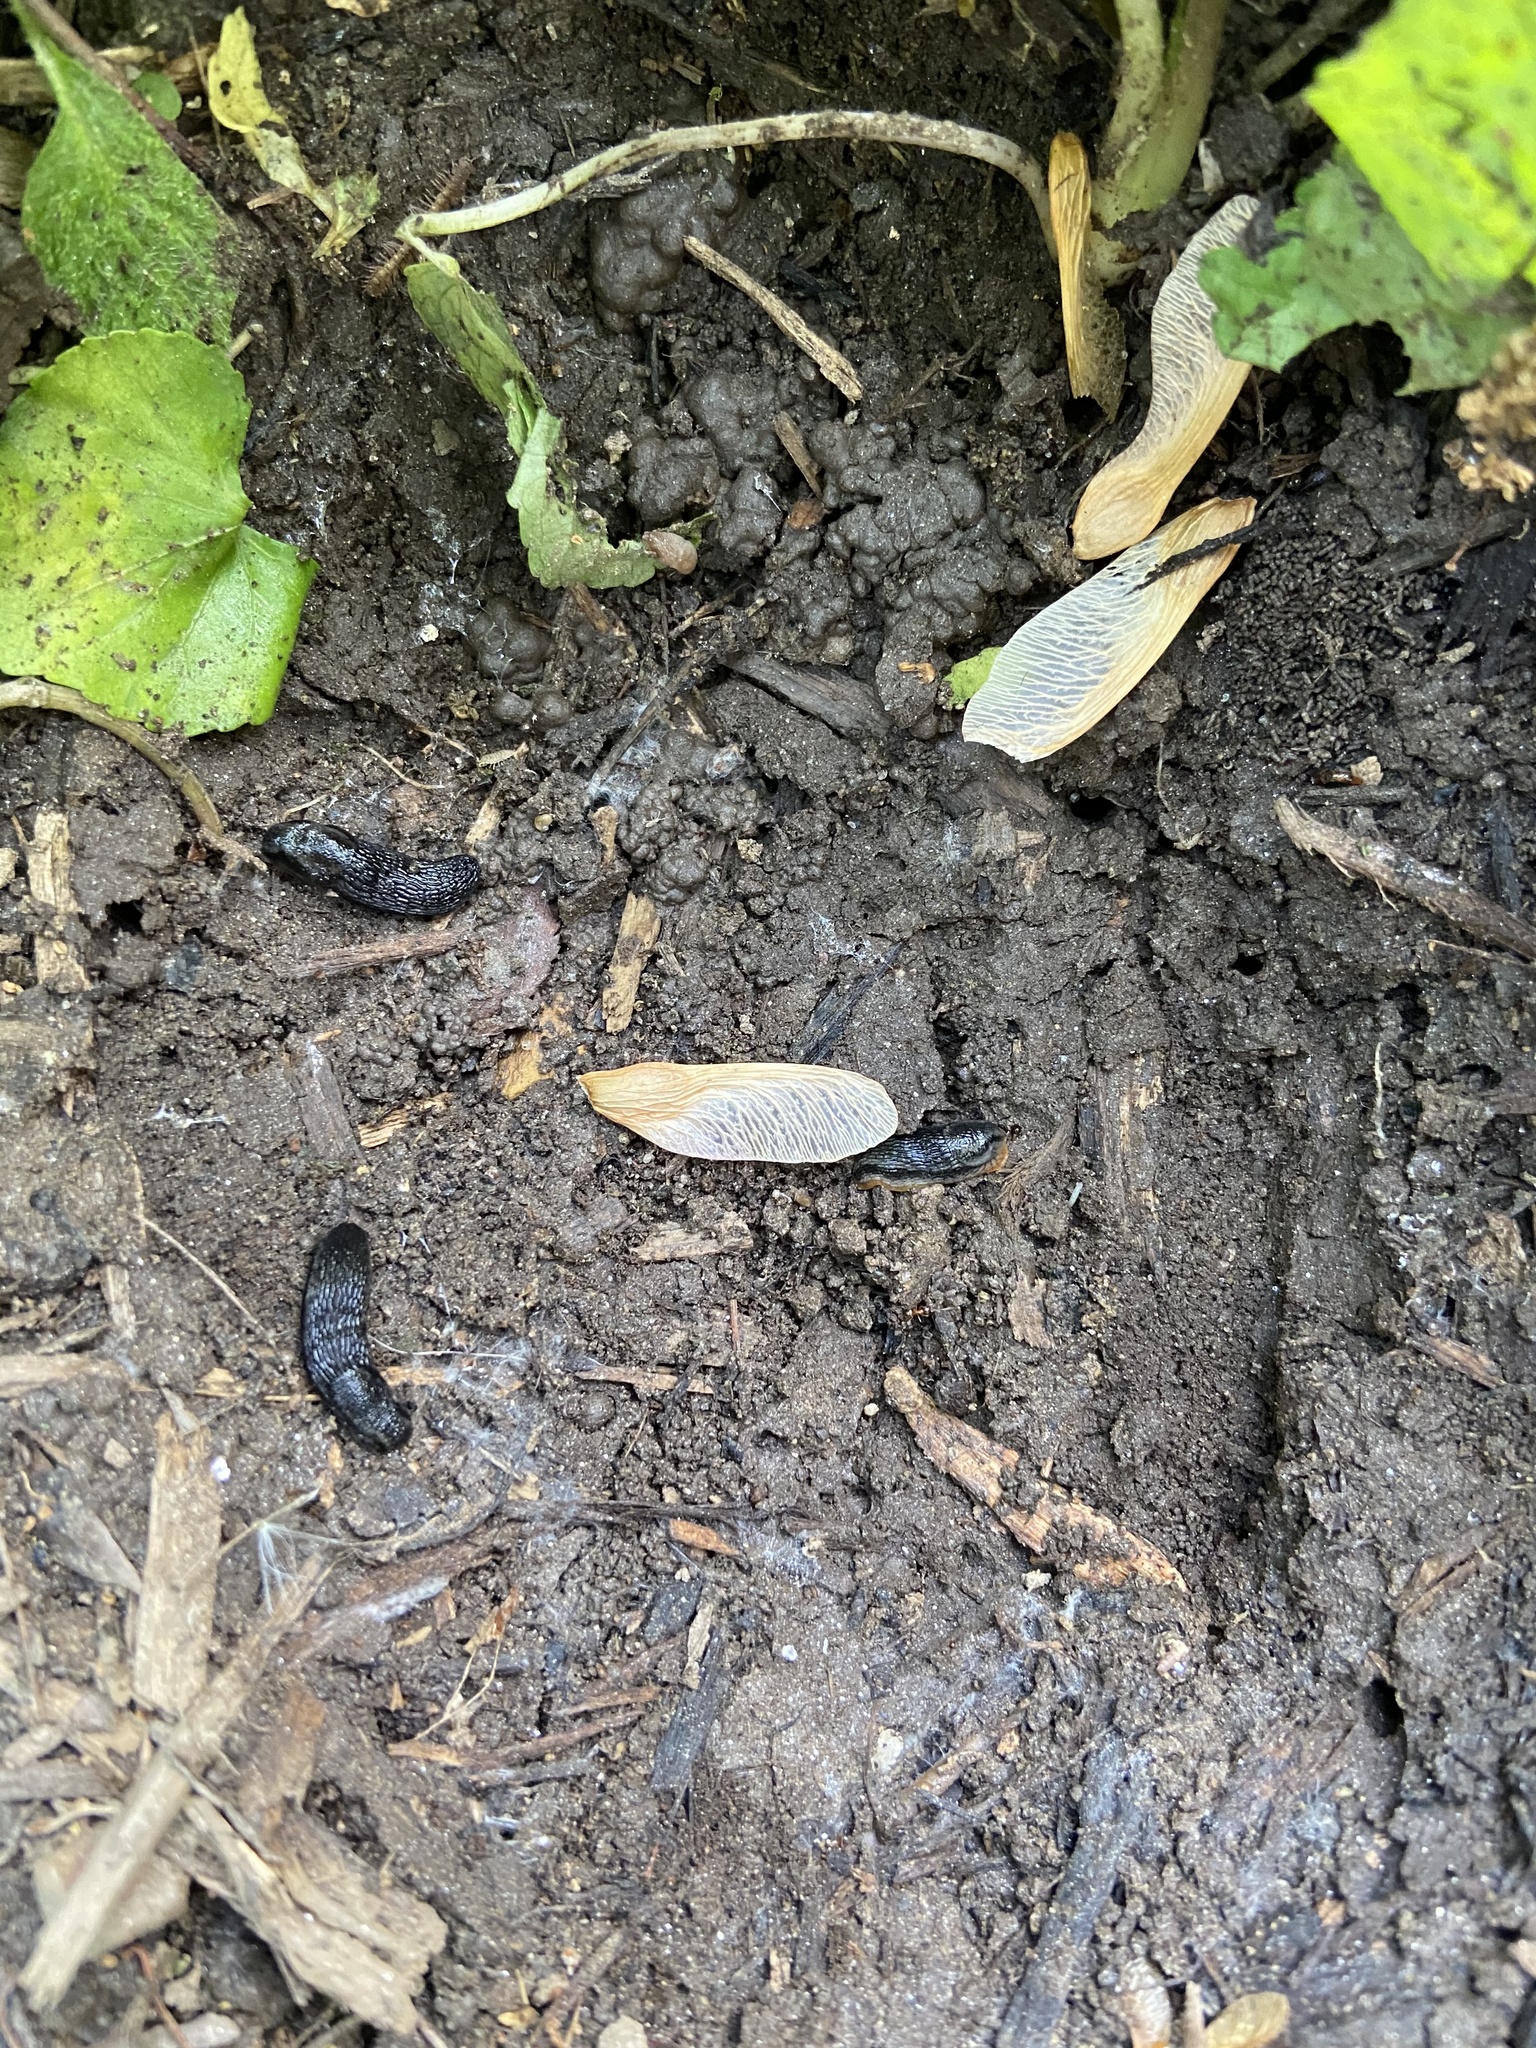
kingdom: Animalia
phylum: Mollusca
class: Gastropoda
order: Stylommatophora
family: Arionidae
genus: Arion
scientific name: Arion hortensis
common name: Garden arion
